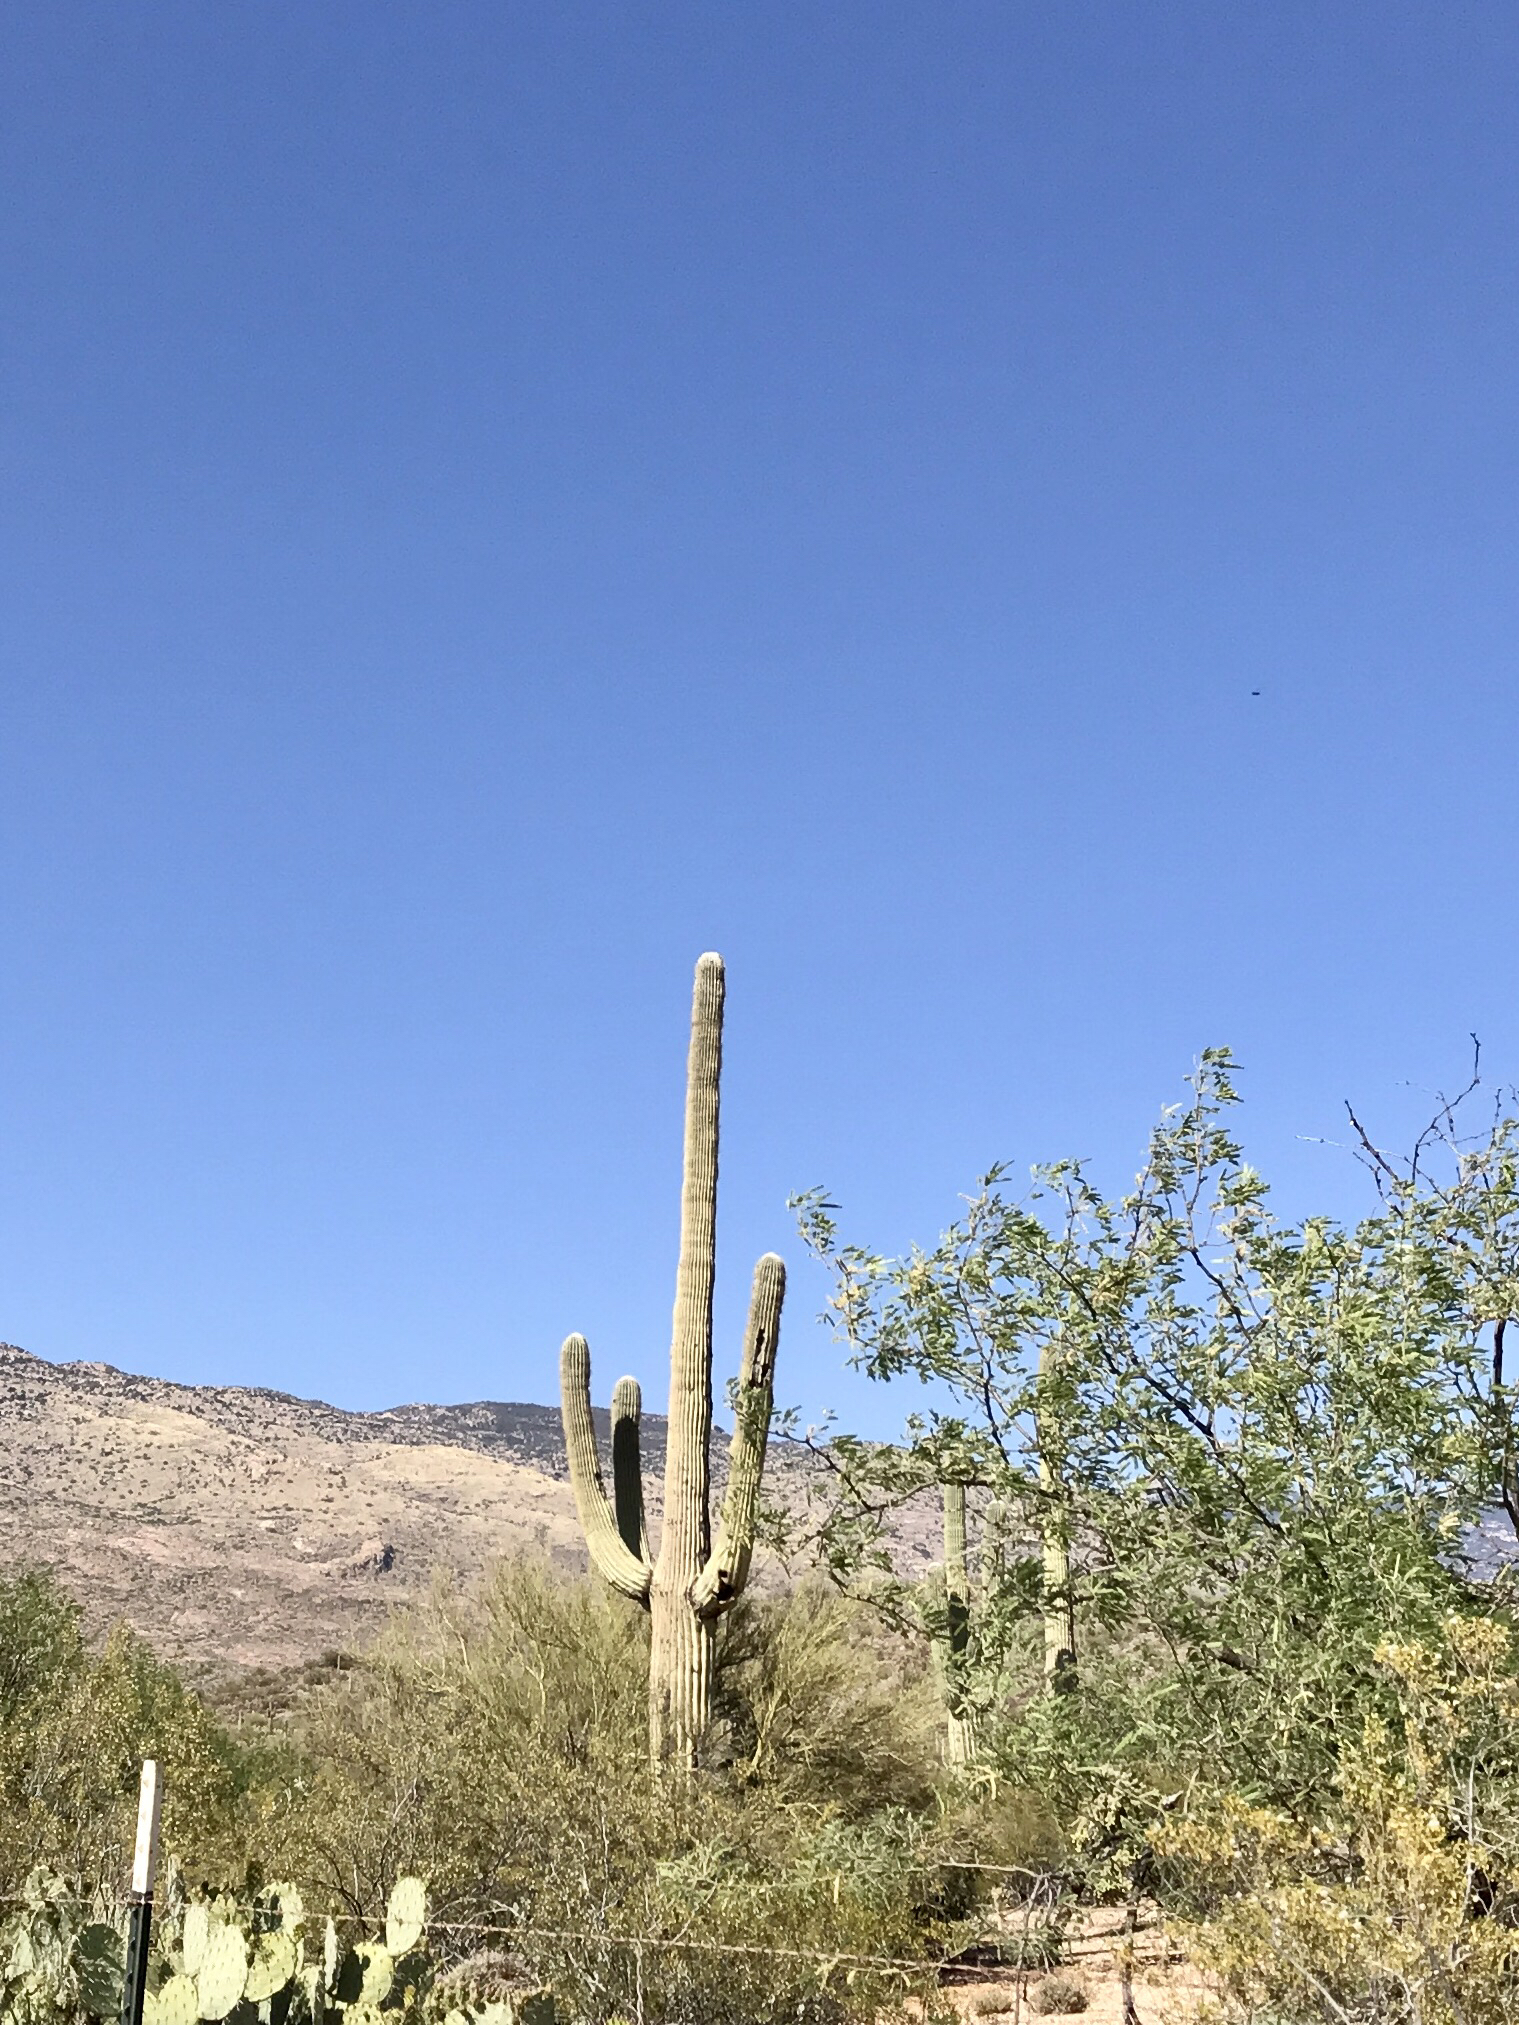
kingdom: Plantae
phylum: Tracheophyta
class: Magnoliopsida
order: Caryophyllales
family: Cactaceae
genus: Carnegiea
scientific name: Carnegiea gigantea
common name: Saguaro
